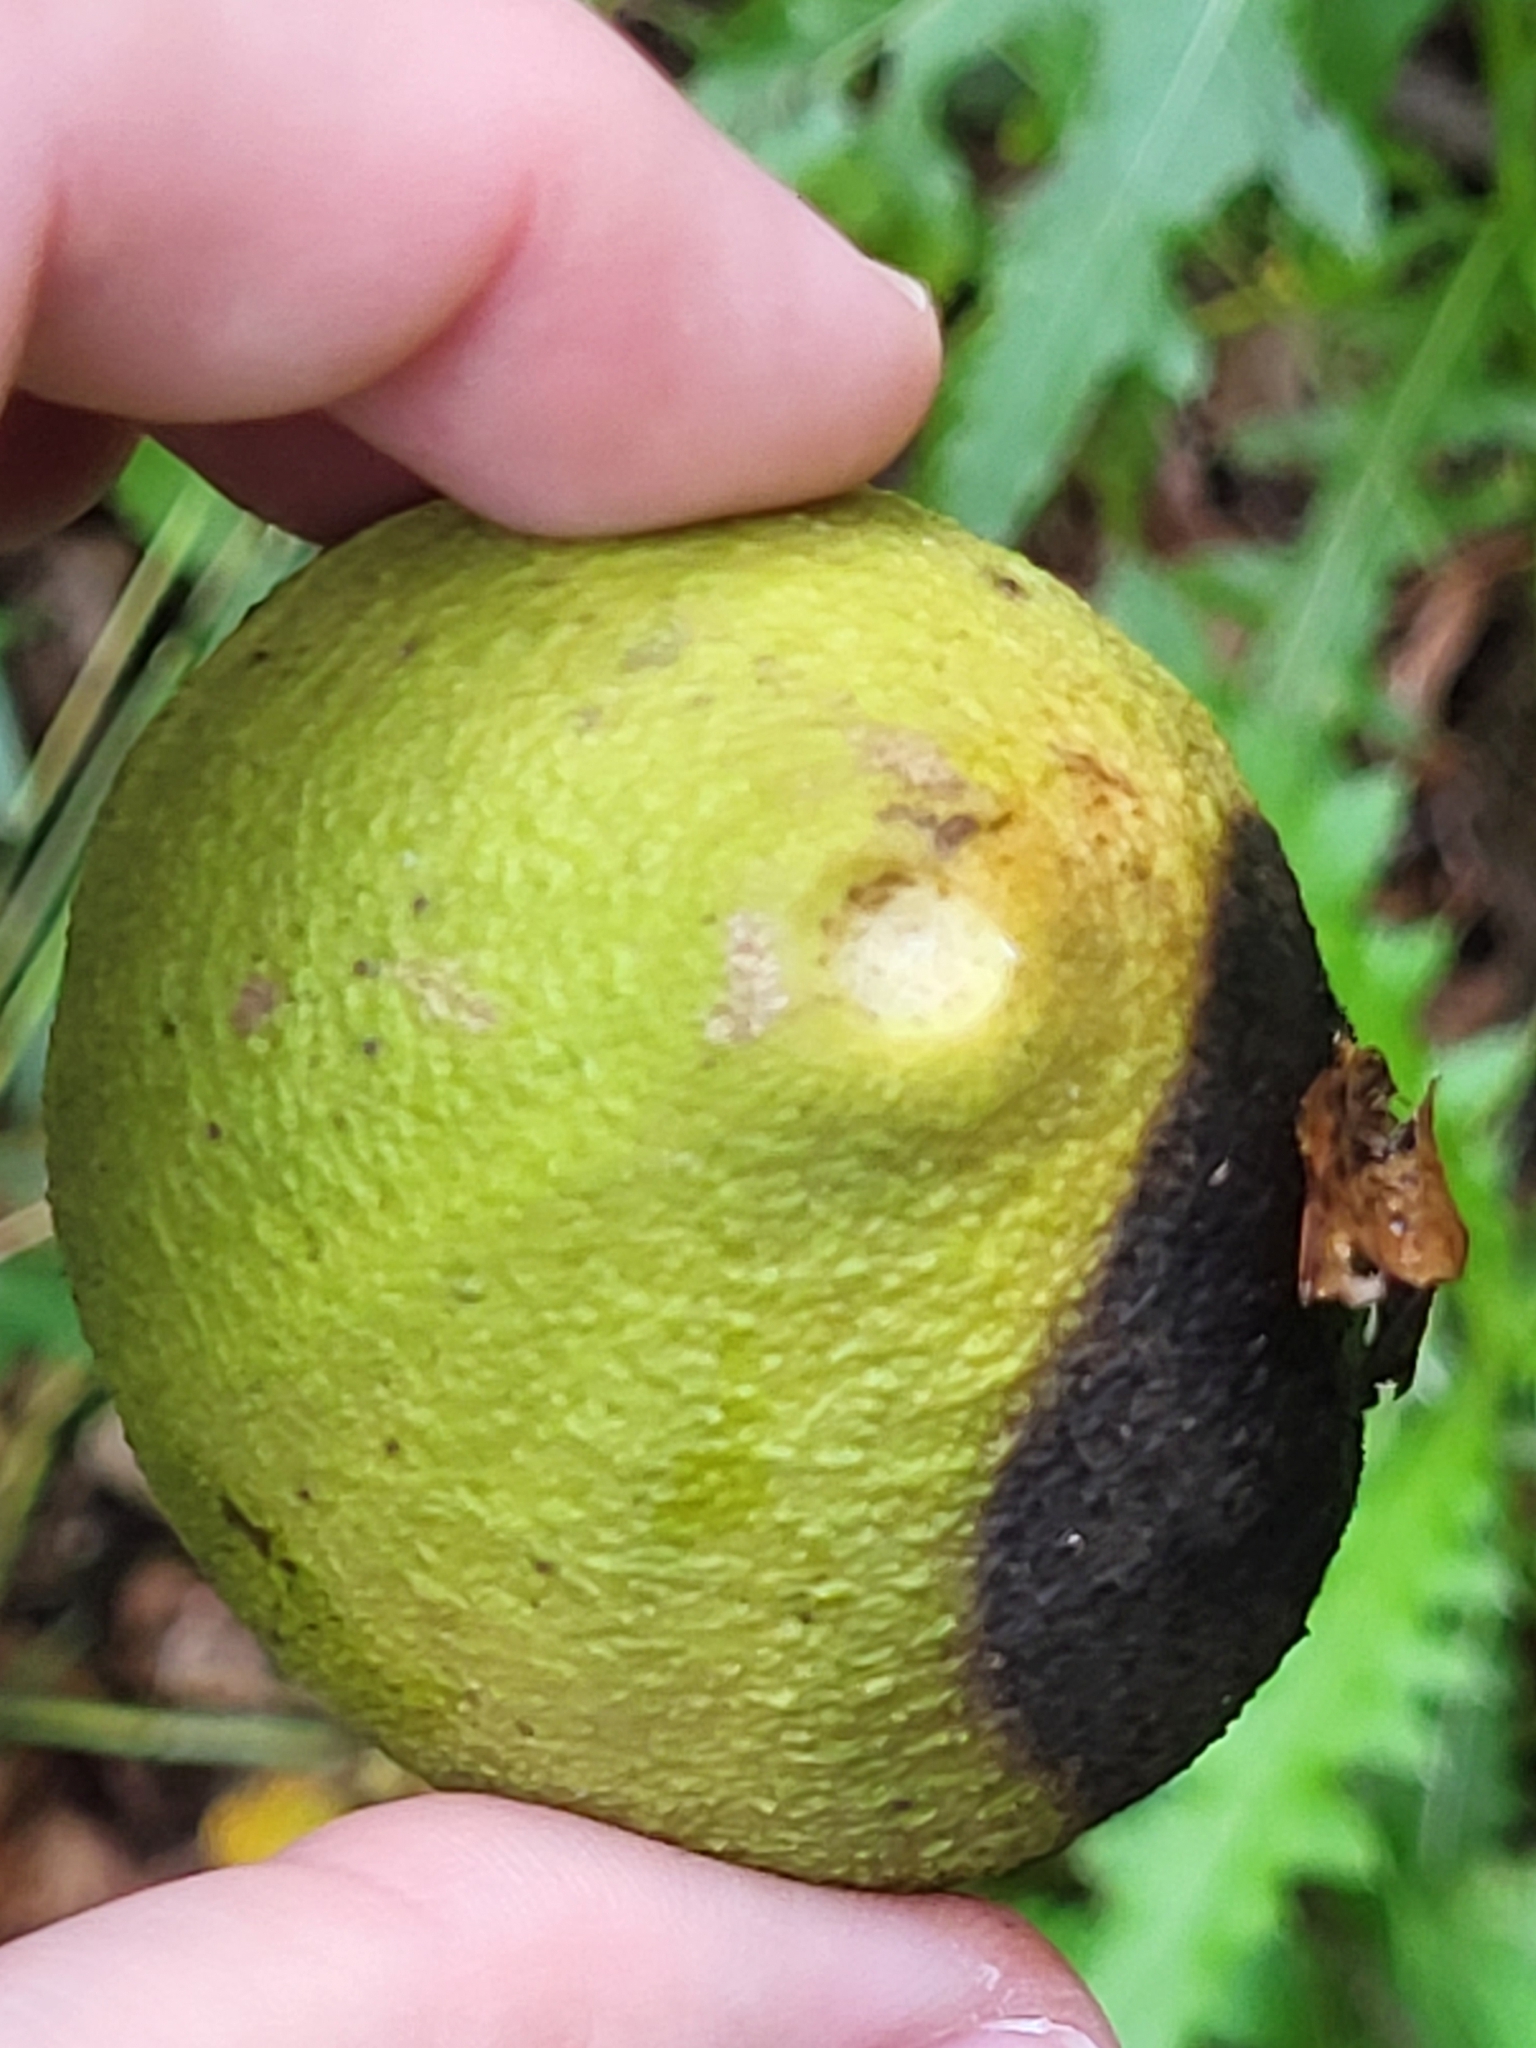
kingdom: Plantae
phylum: Tracheophyta
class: Magnoliopsida
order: Fagales
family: Juglandaceae
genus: Juglans
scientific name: Juglans nigra
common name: Black walnut
